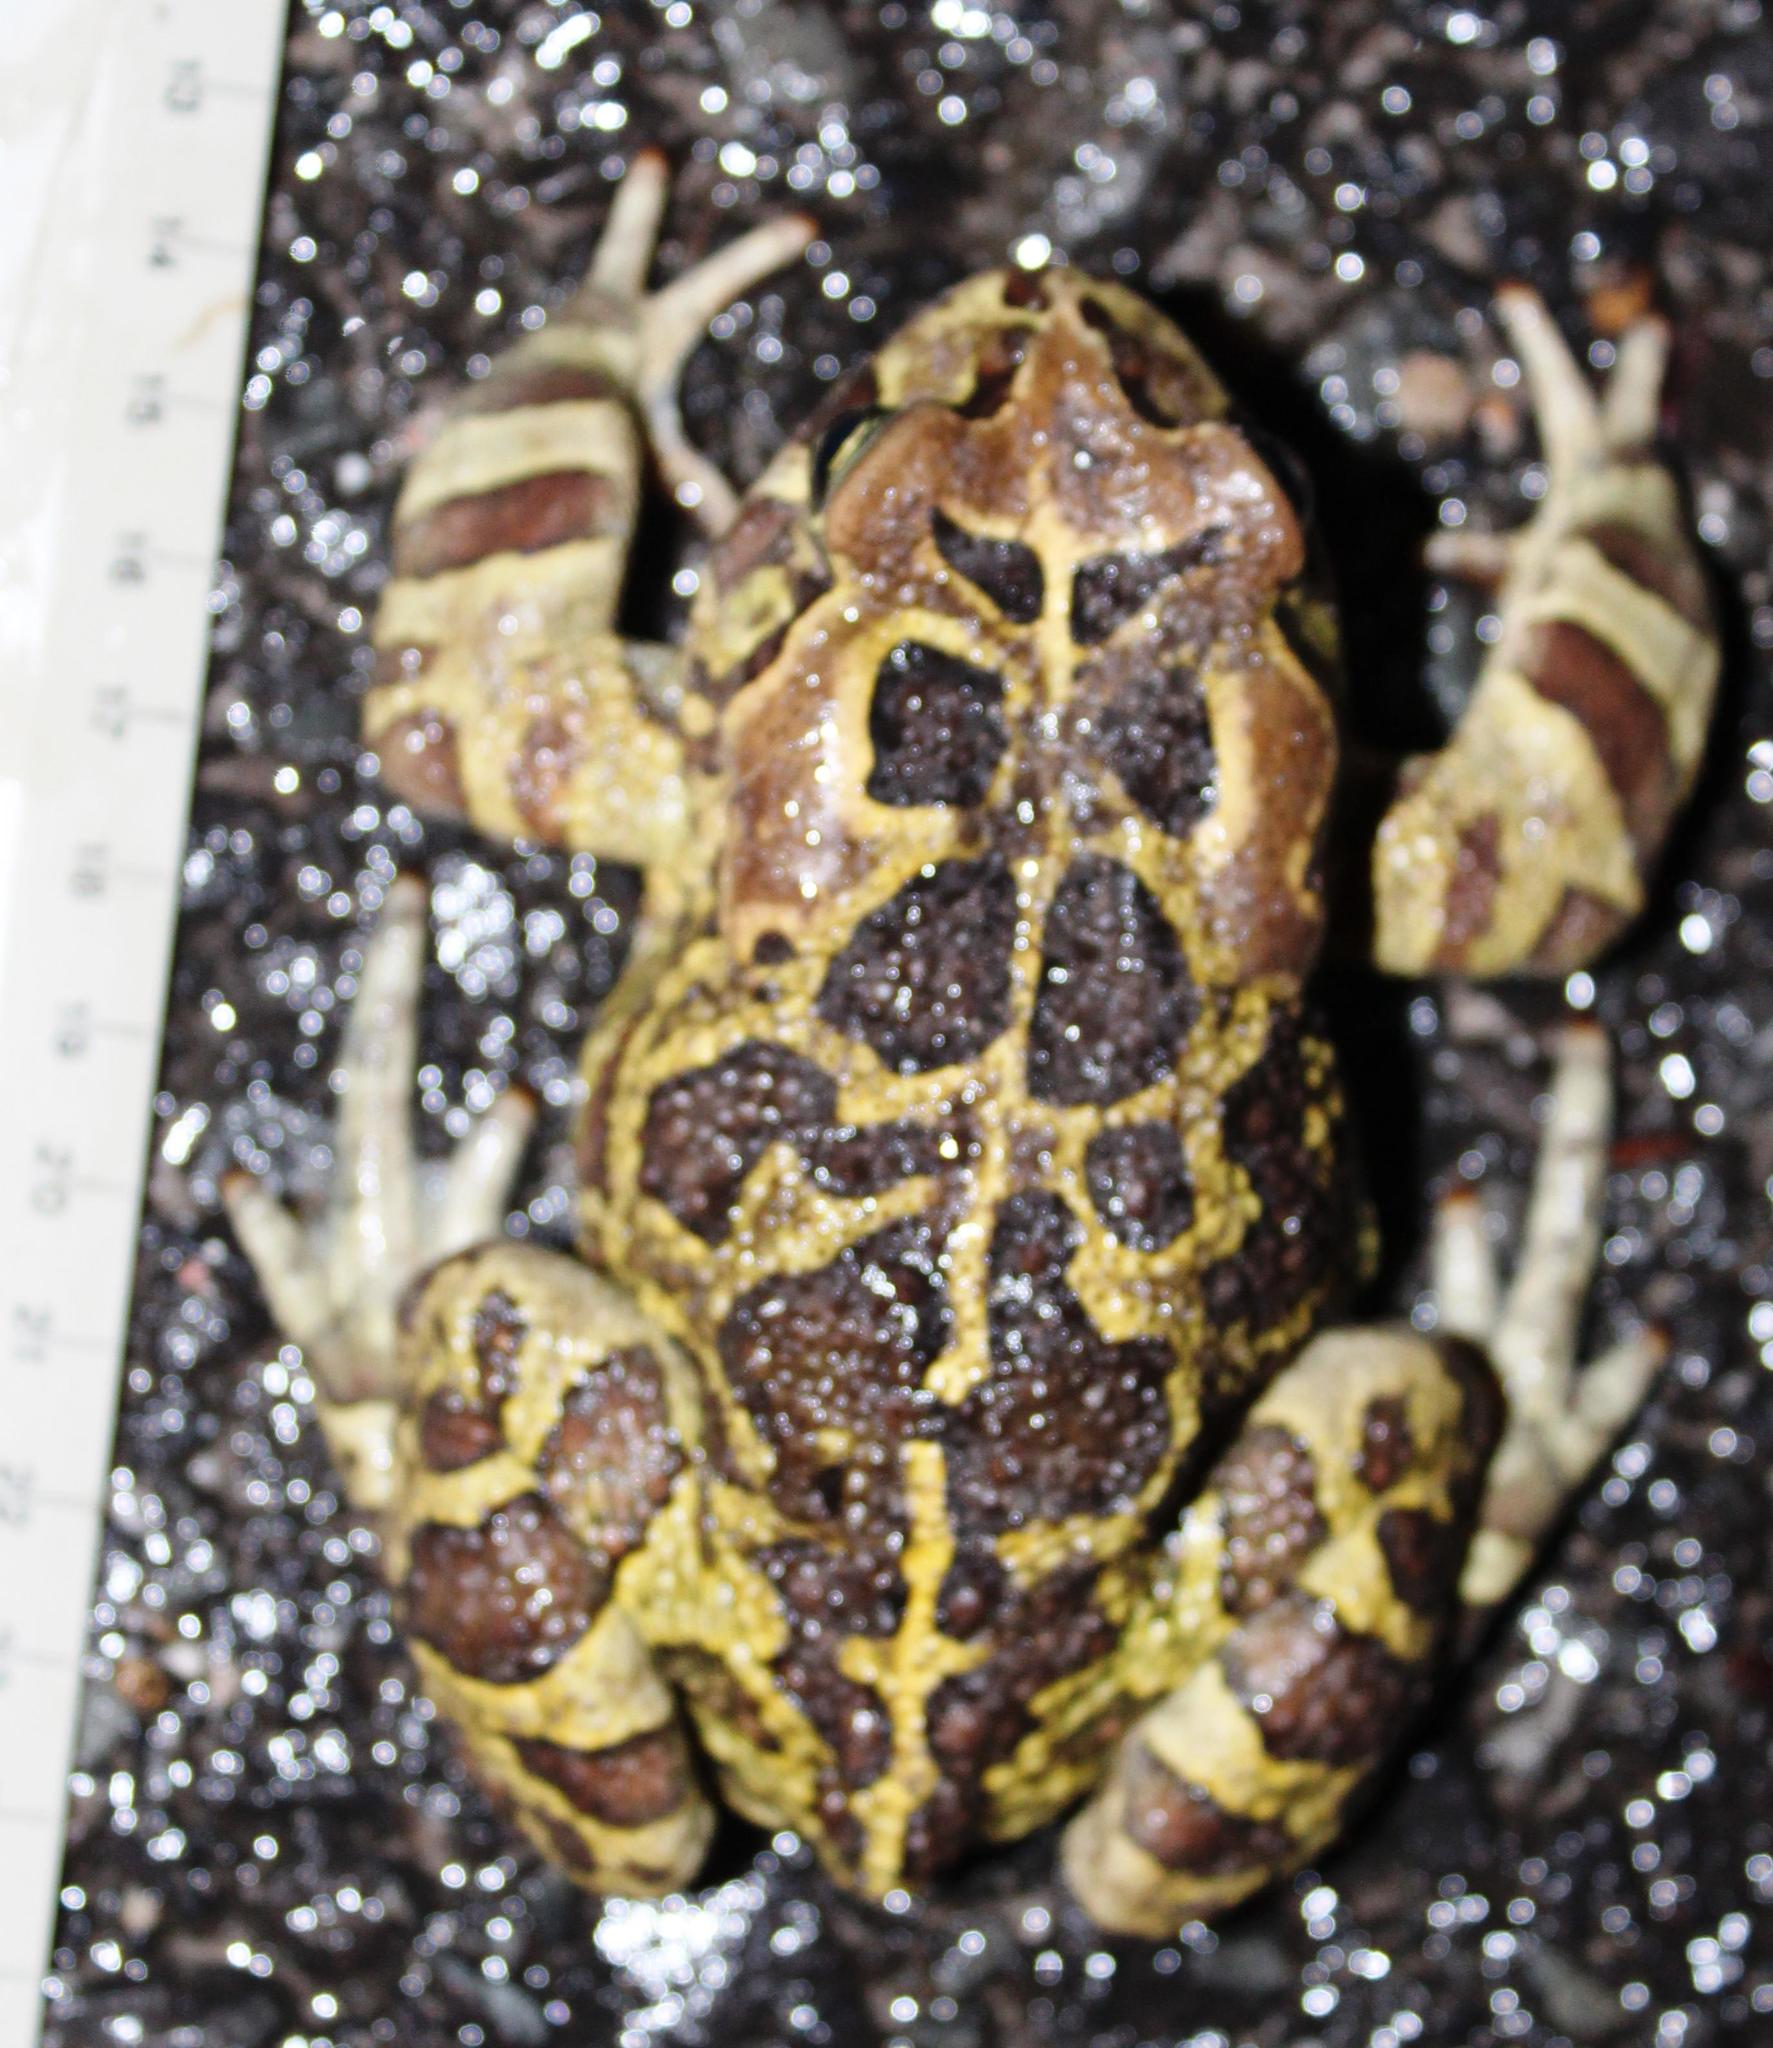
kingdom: Animalia
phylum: Chordata
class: Amphibia
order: Anura
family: Bufonidae
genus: Sclerophrys
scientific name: Sclerophrys pantherina
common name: Panther toad
